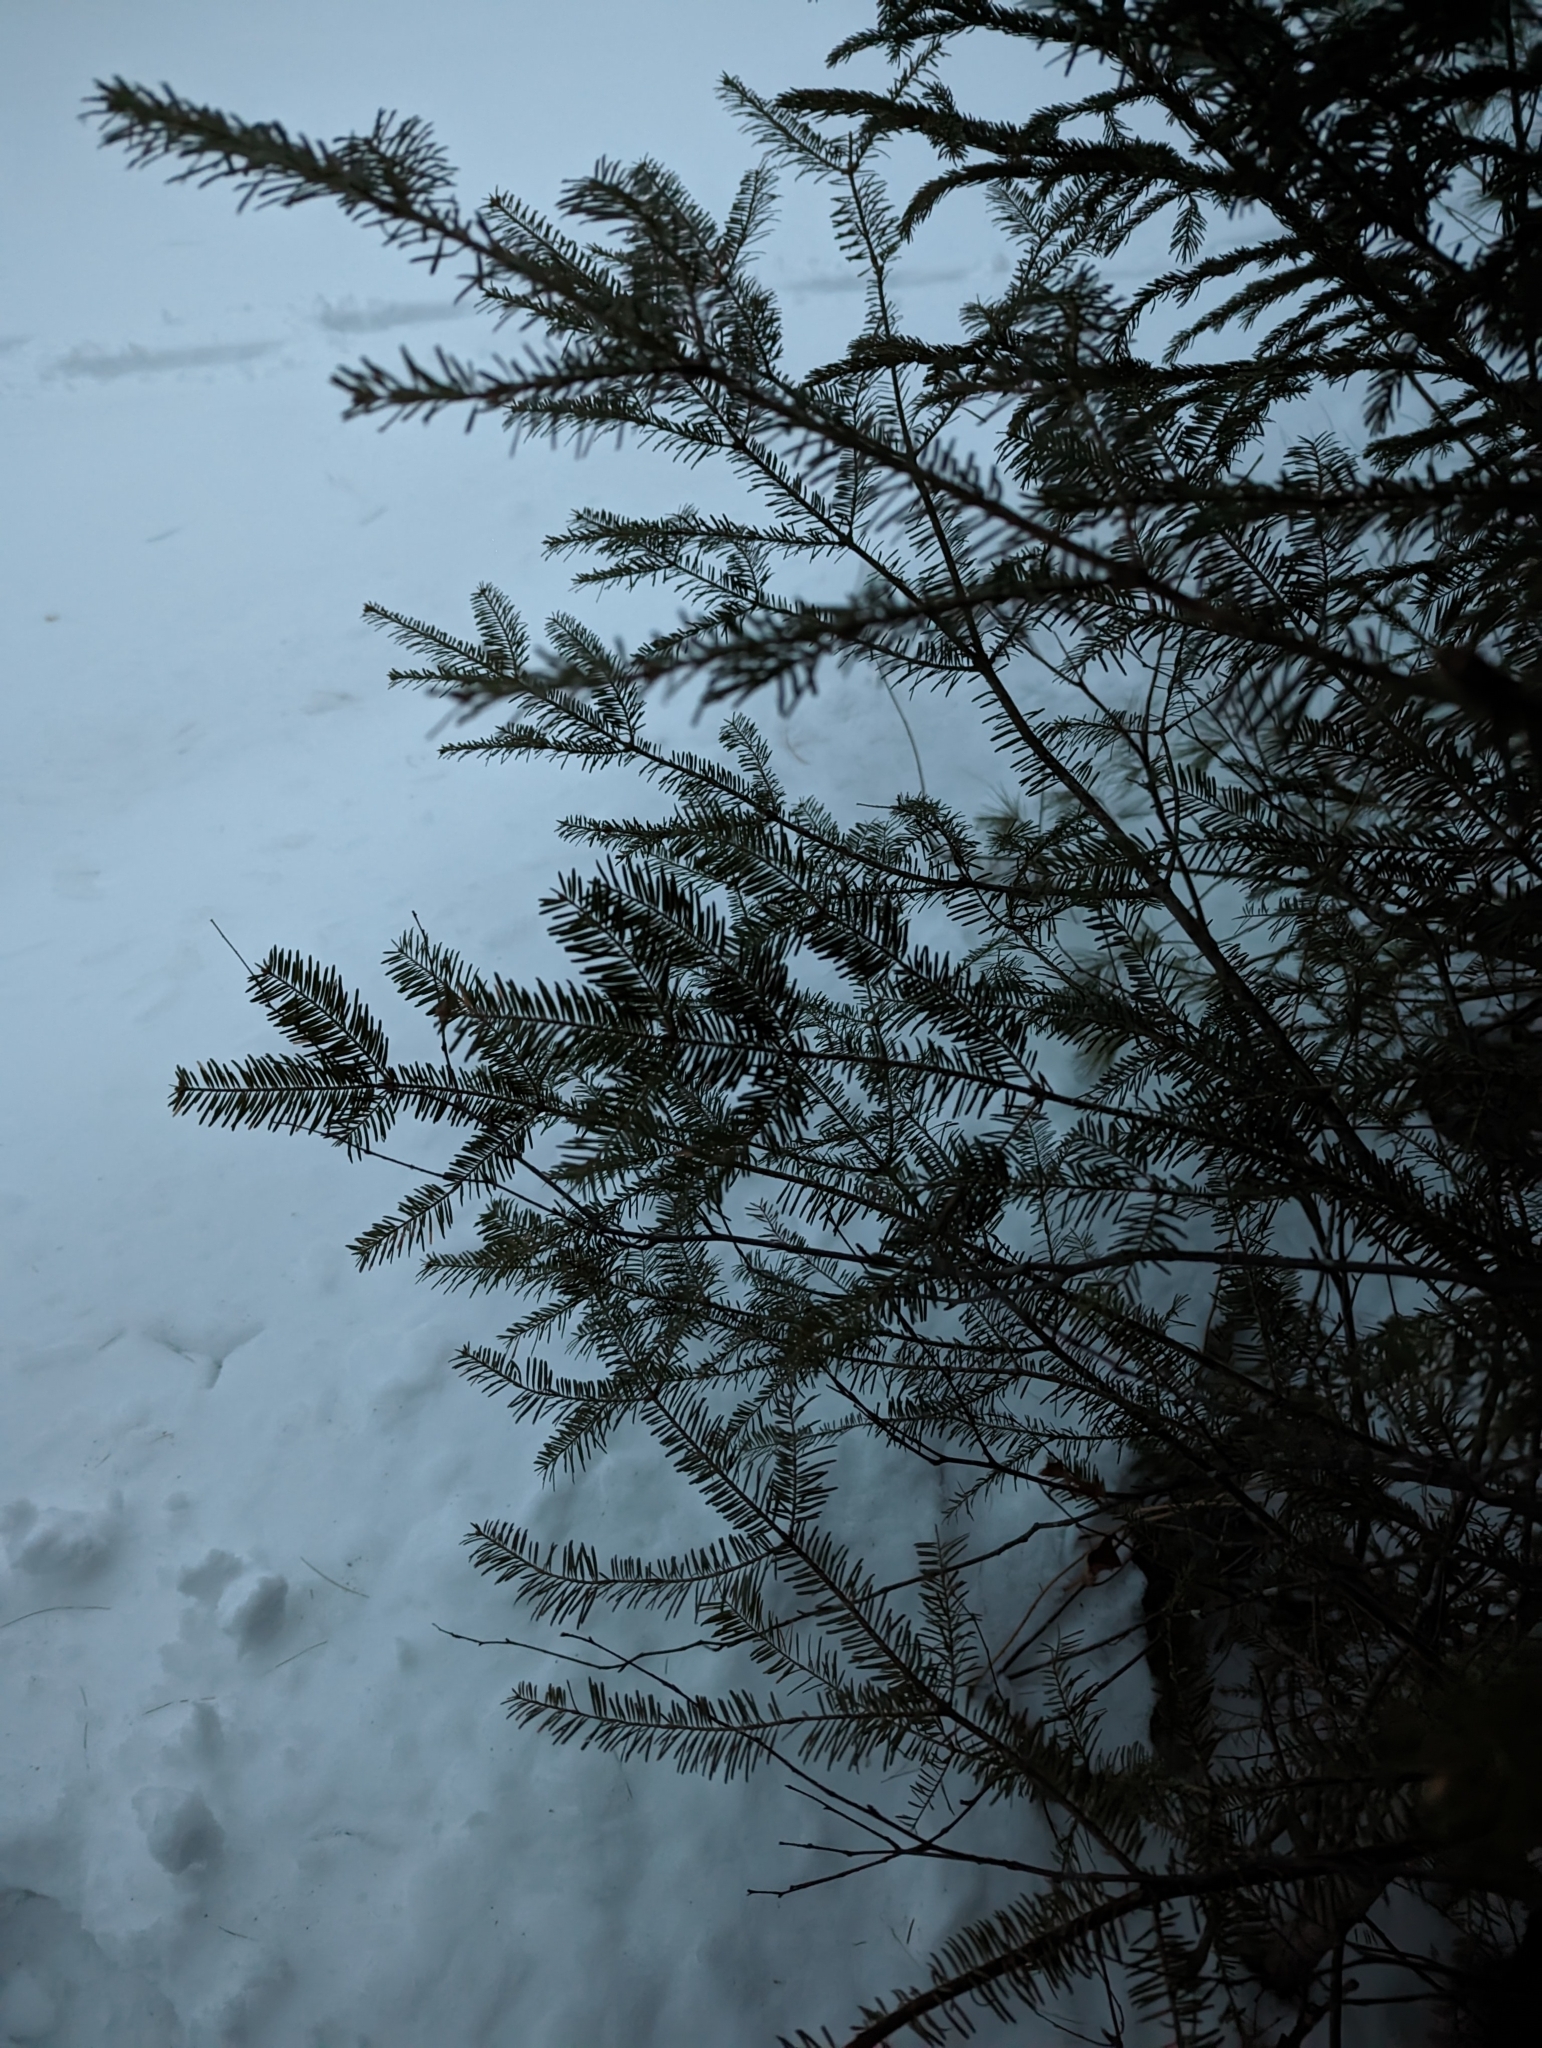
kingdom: Plantae
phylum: Tracheophyta
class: Pinopsida
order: Pinales
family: Pinaceae
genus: Abies
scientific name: Abies balsamea
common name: Balsam fir
